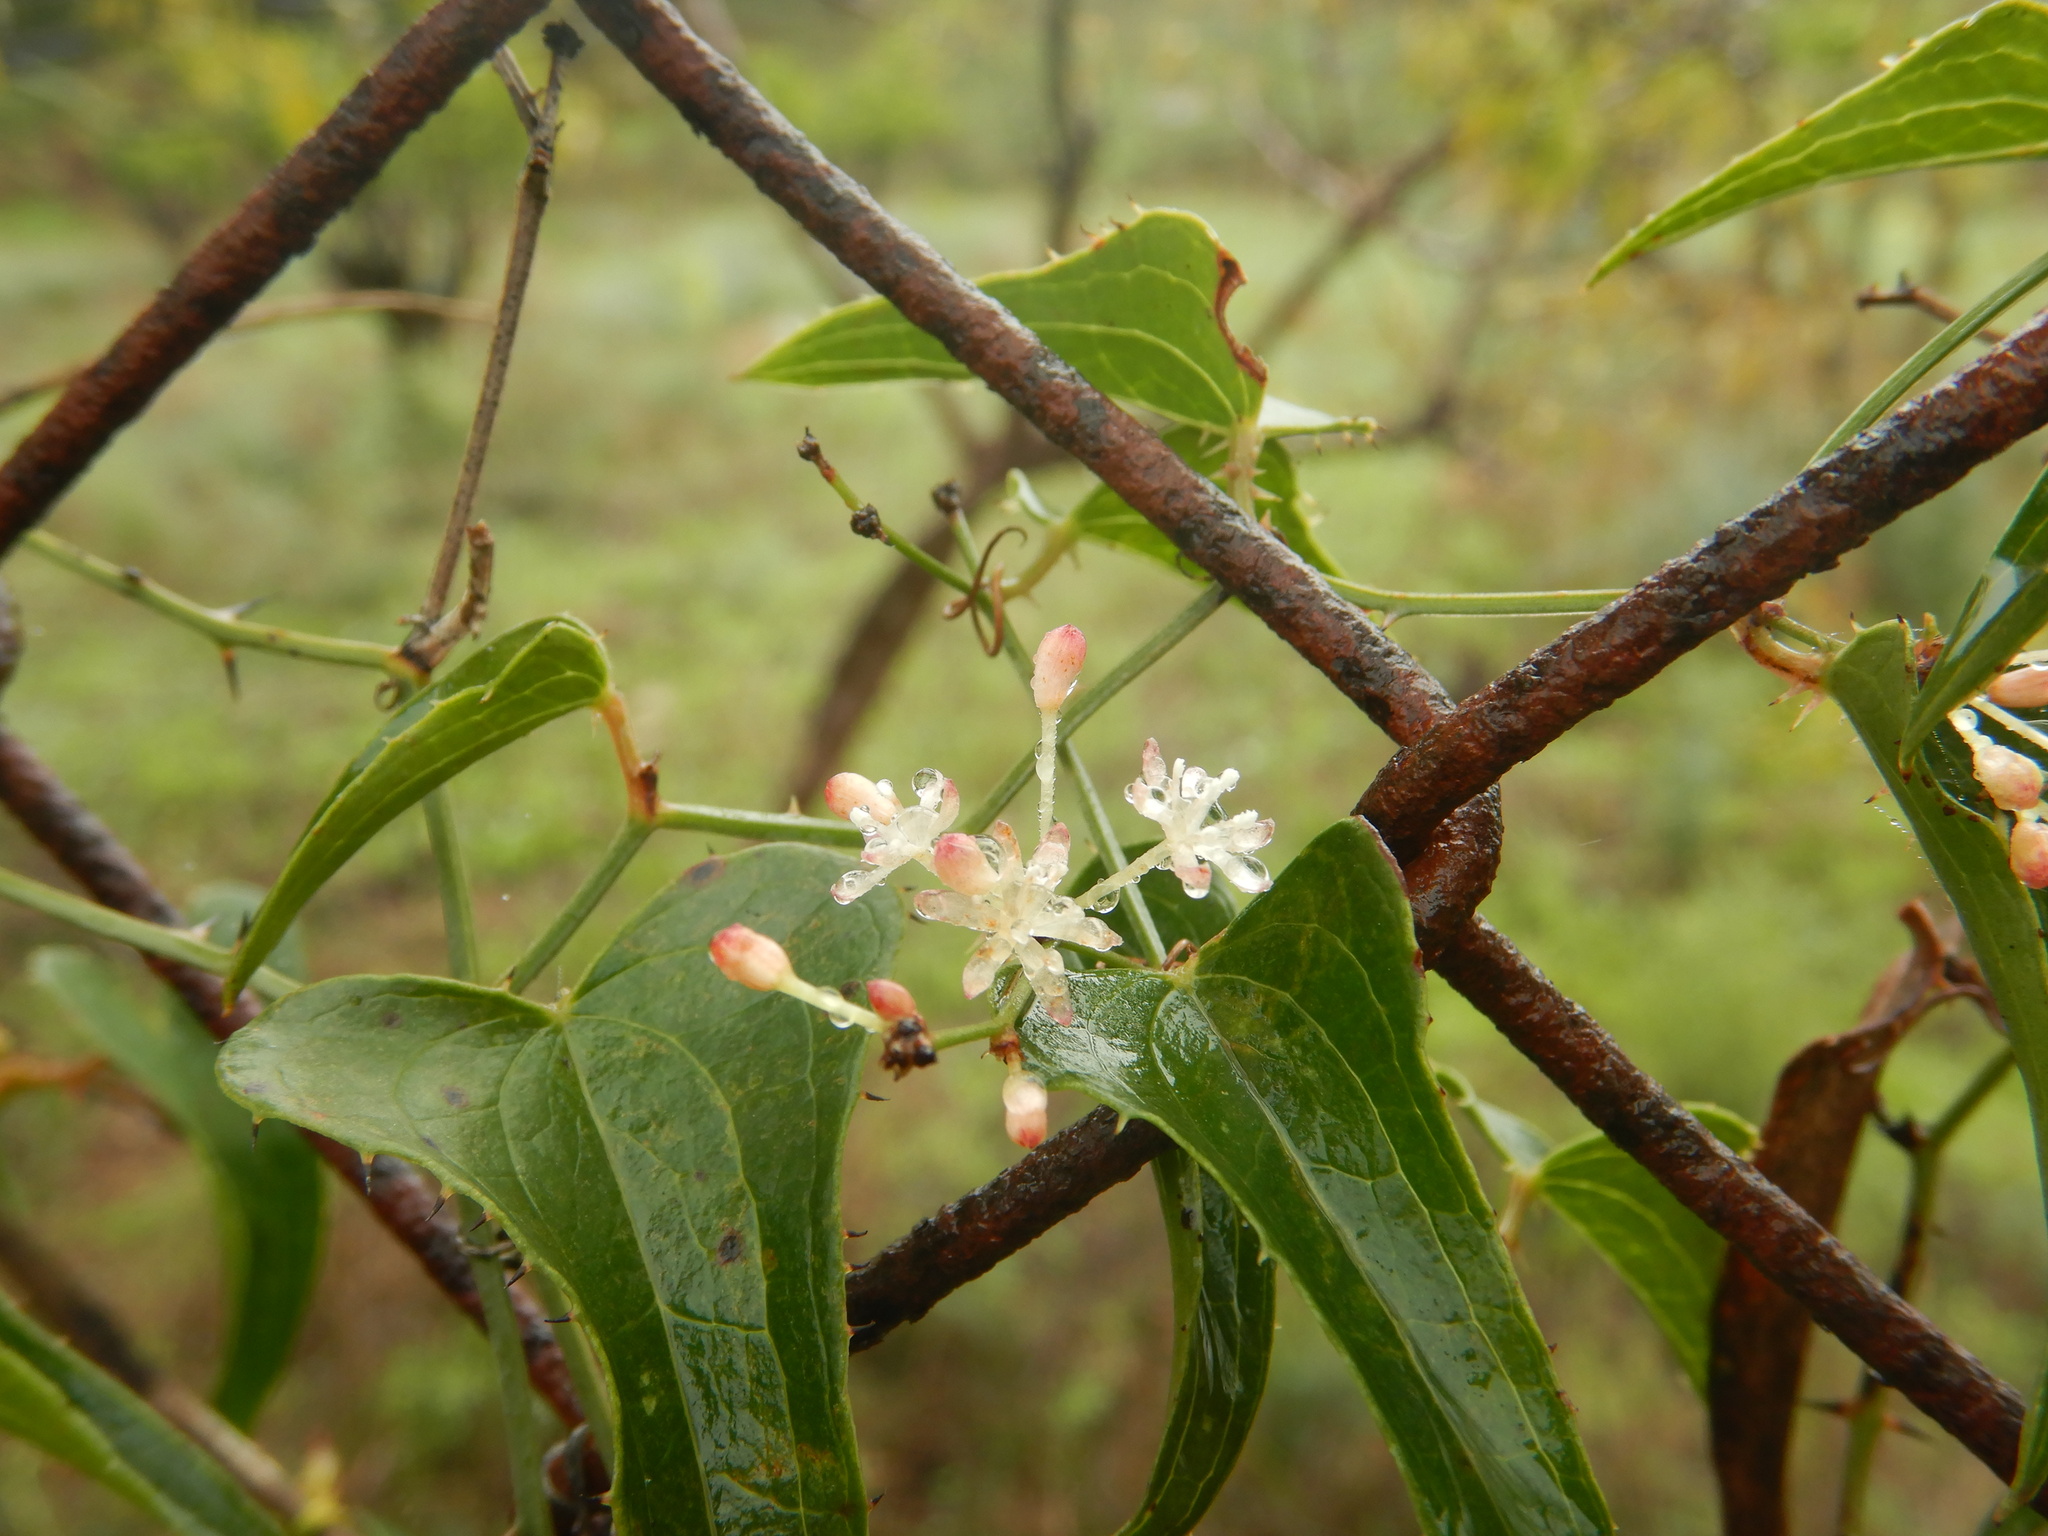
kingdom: Plantae
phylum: Tracheophyta
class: Liliopsida
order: Liliales
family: Smilacaceae
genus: Smilax
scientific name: Smilax aspera
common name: Common smilax
